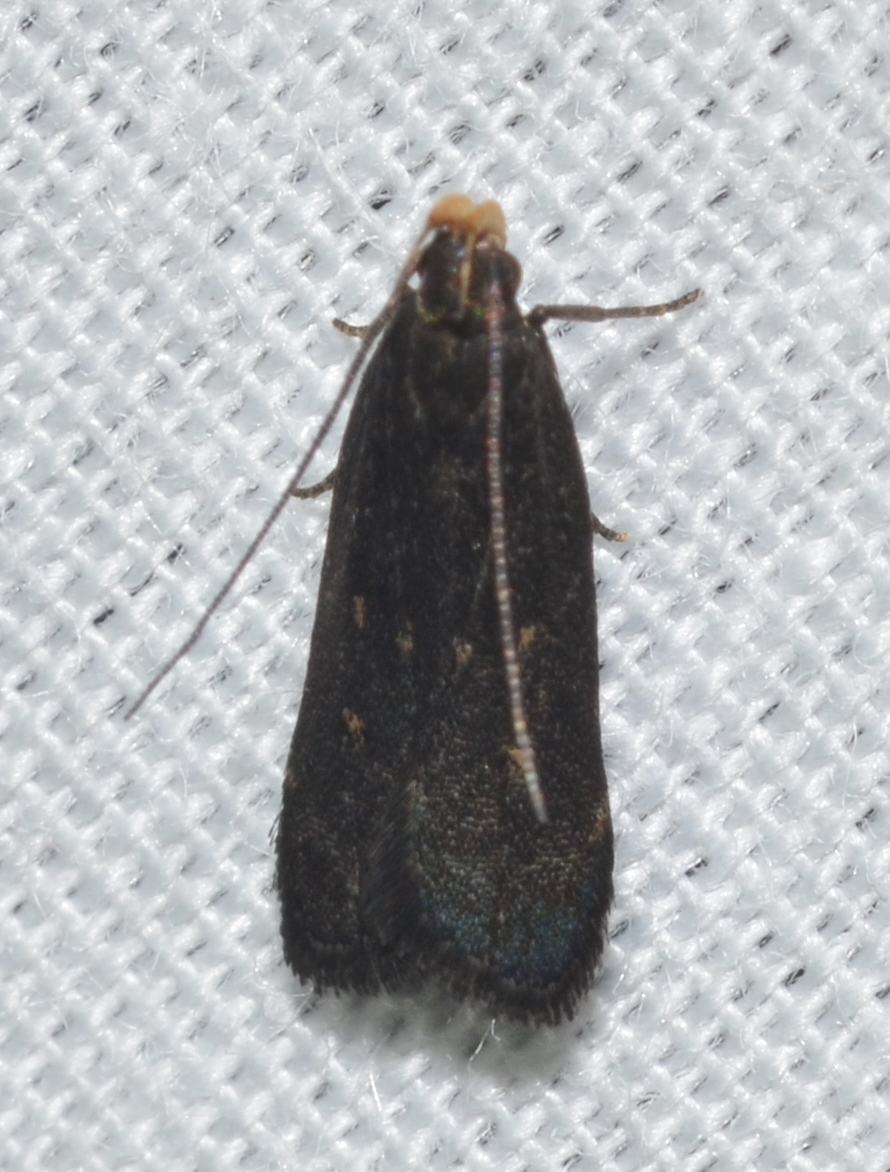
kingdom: Animalia
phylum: Arthropoda
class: Insecta
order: Lepidoptera
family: Gelechiidae
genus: Dichomeris
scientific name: Dichomeris juncidella
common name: Orange-dotted dichomeris moth
